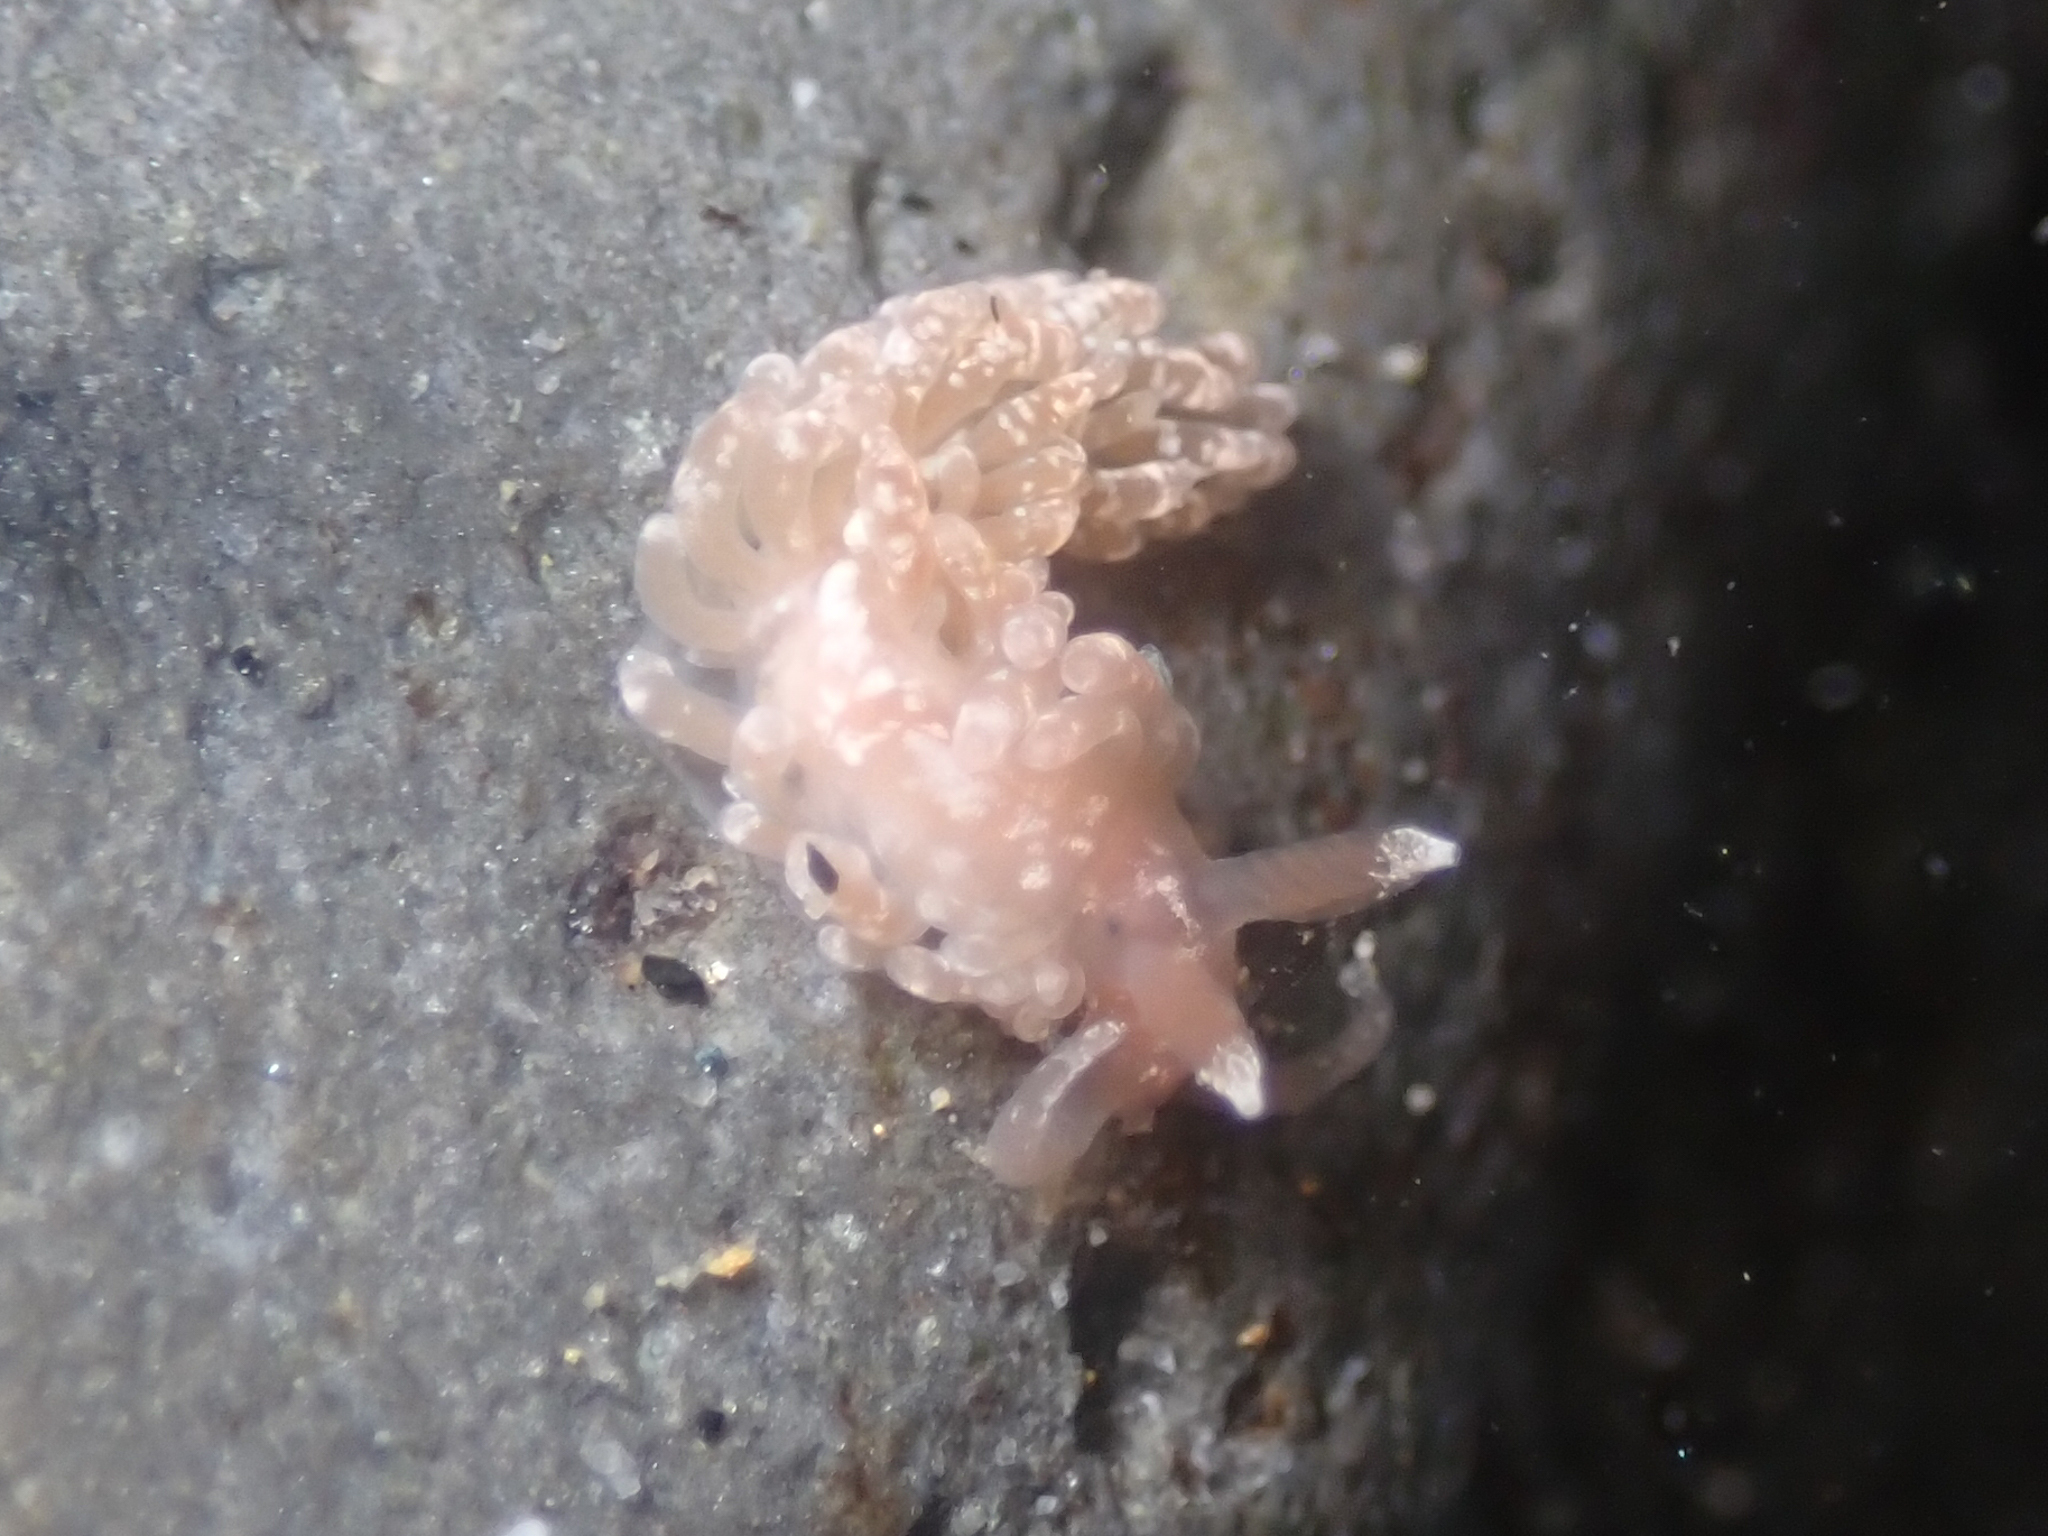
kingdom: Animalia
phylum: Mollusca
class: Gastropoda
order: Nudibranchia
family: Aeolidiidae
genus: Anteaeolidiella
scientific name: Anteaeolidiella chromosoma
